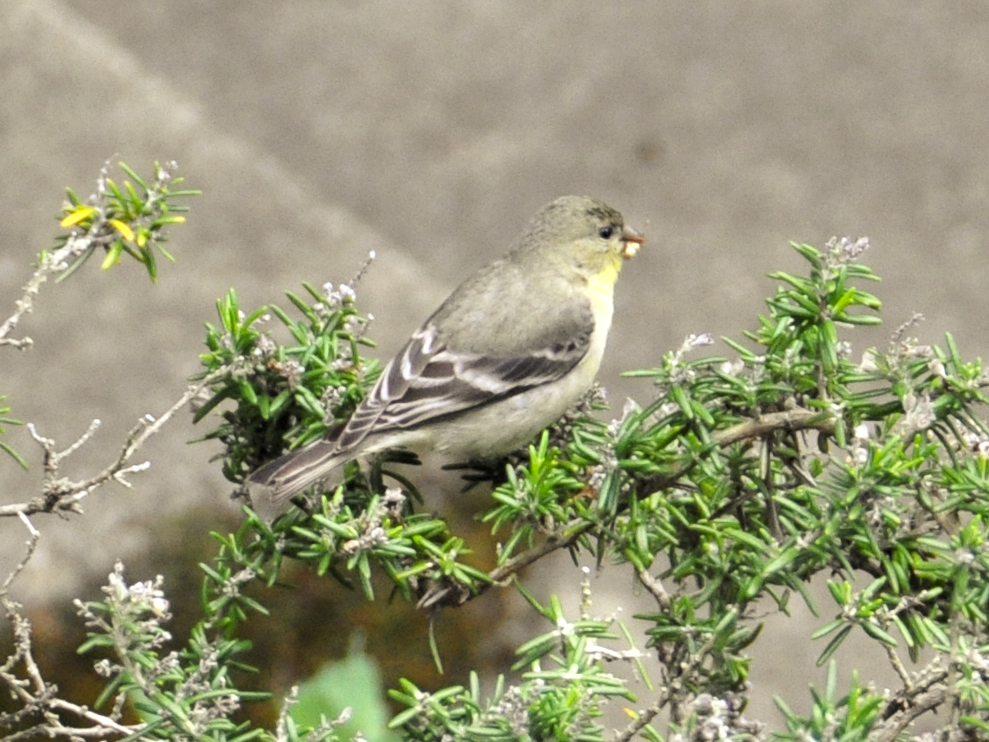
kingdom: Animalia
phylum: Chordata
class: Aves
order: Passeriformes
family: Fringillidae
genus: Spinus
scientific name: Spinus psaltria
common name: Lesser goldfinch
